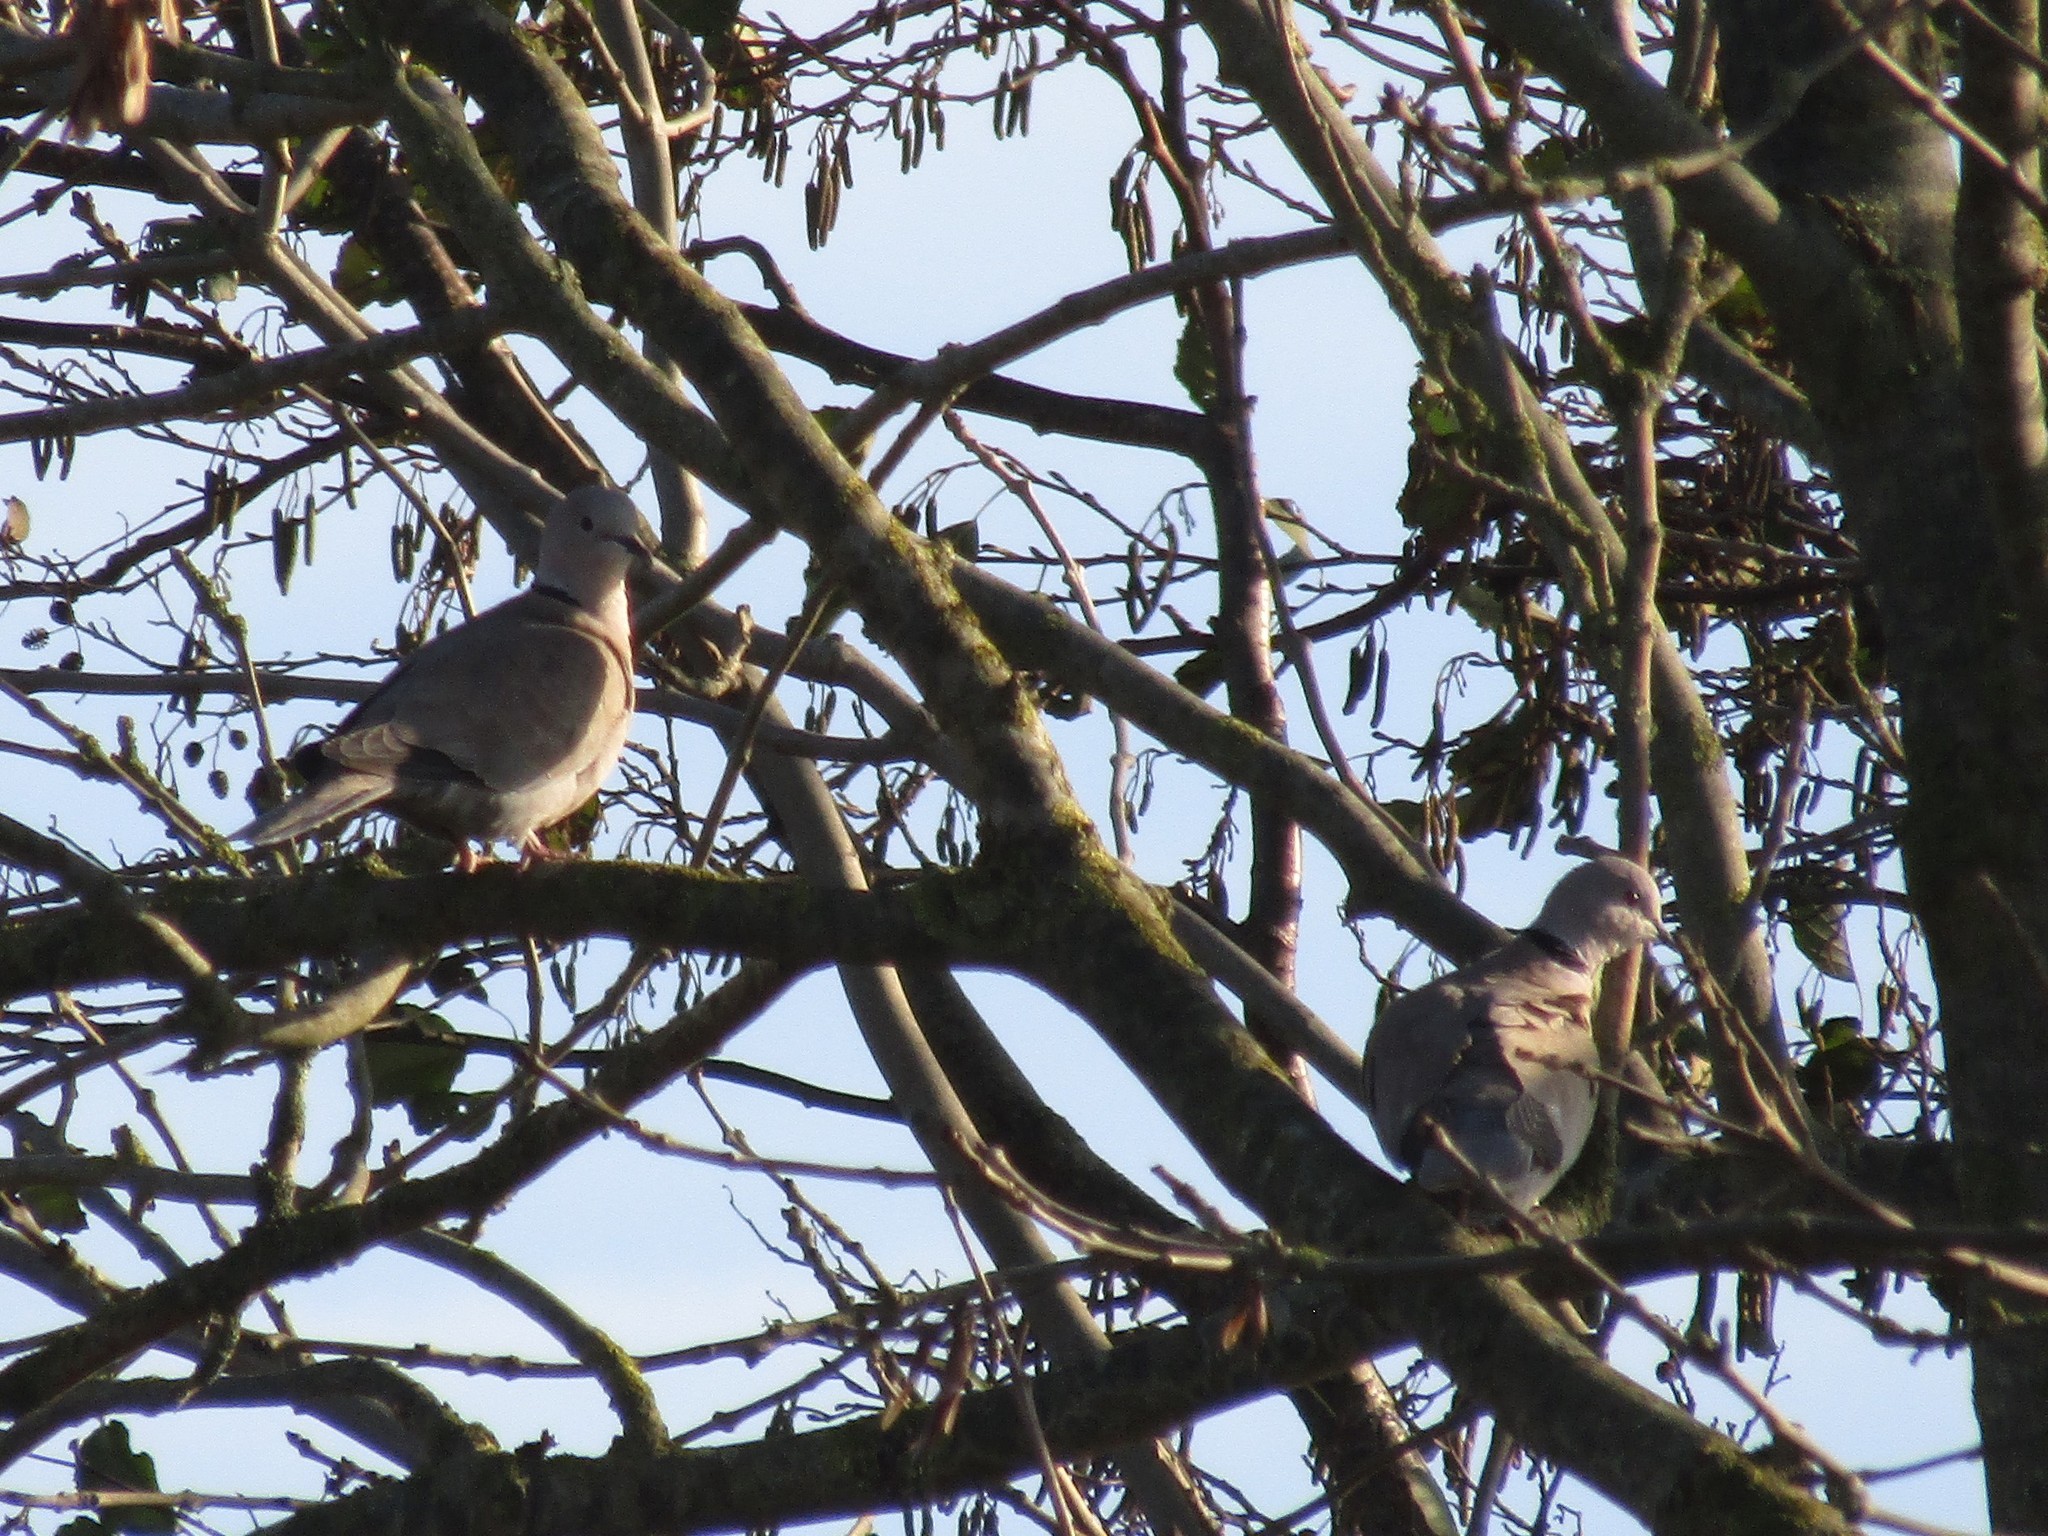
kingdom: Animalia
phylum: Chordata
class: Aves
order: Columbiformes
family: Columbidae
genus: Streptopelia
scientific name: Streptopelia decaocto
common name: Eurasian collared dove
